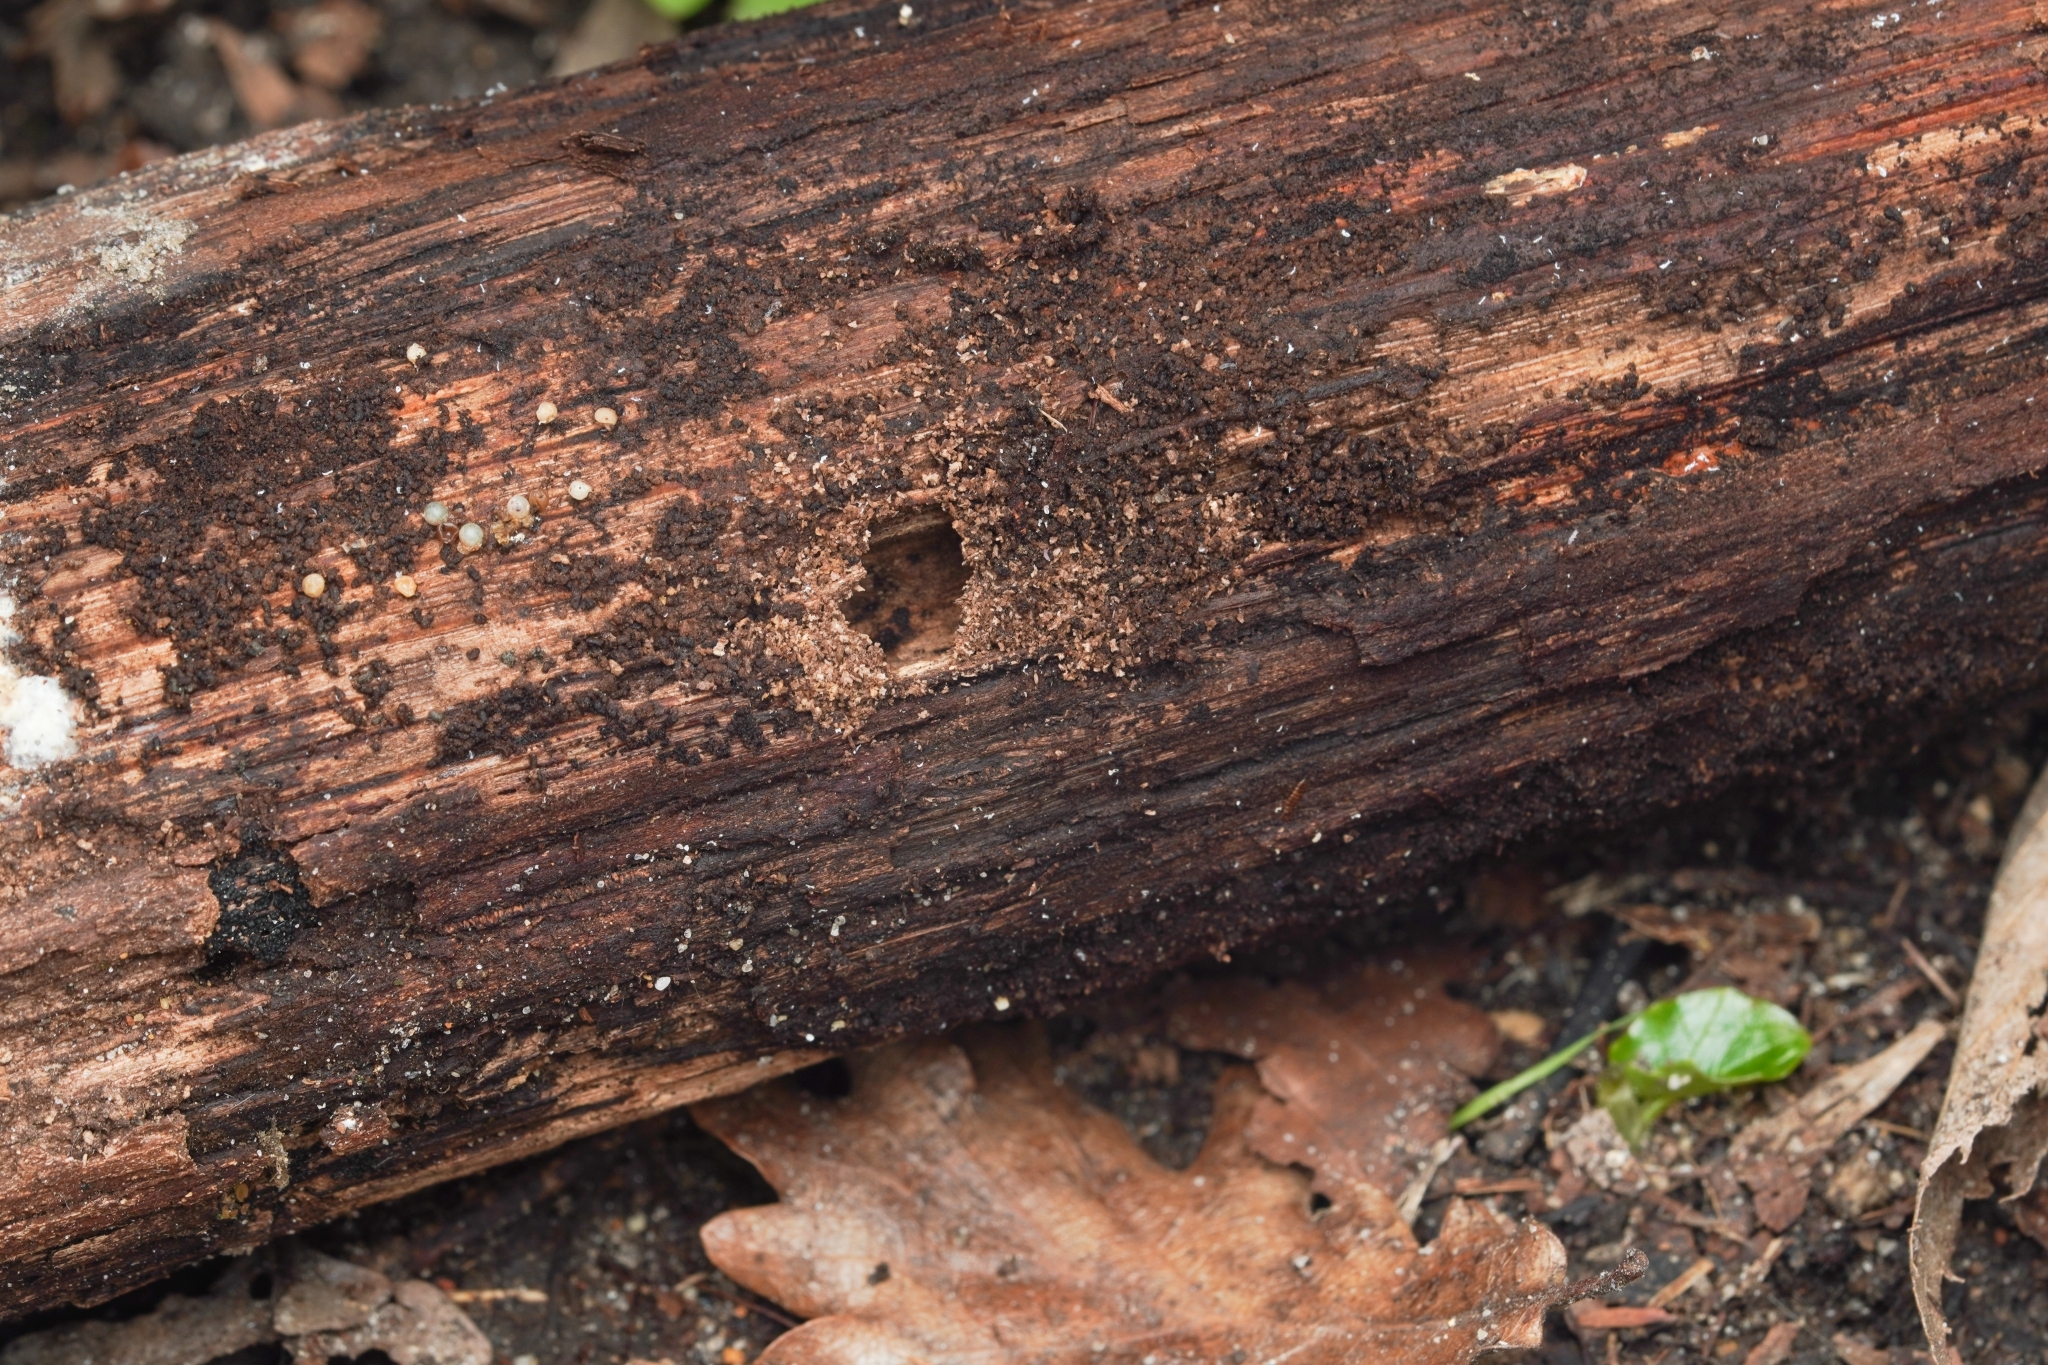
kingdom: Animalia
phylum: Arthropoda
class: Insecta
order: Hymenoptera
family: Formicidae
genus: Lasius
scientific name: Lasius emarginatus
